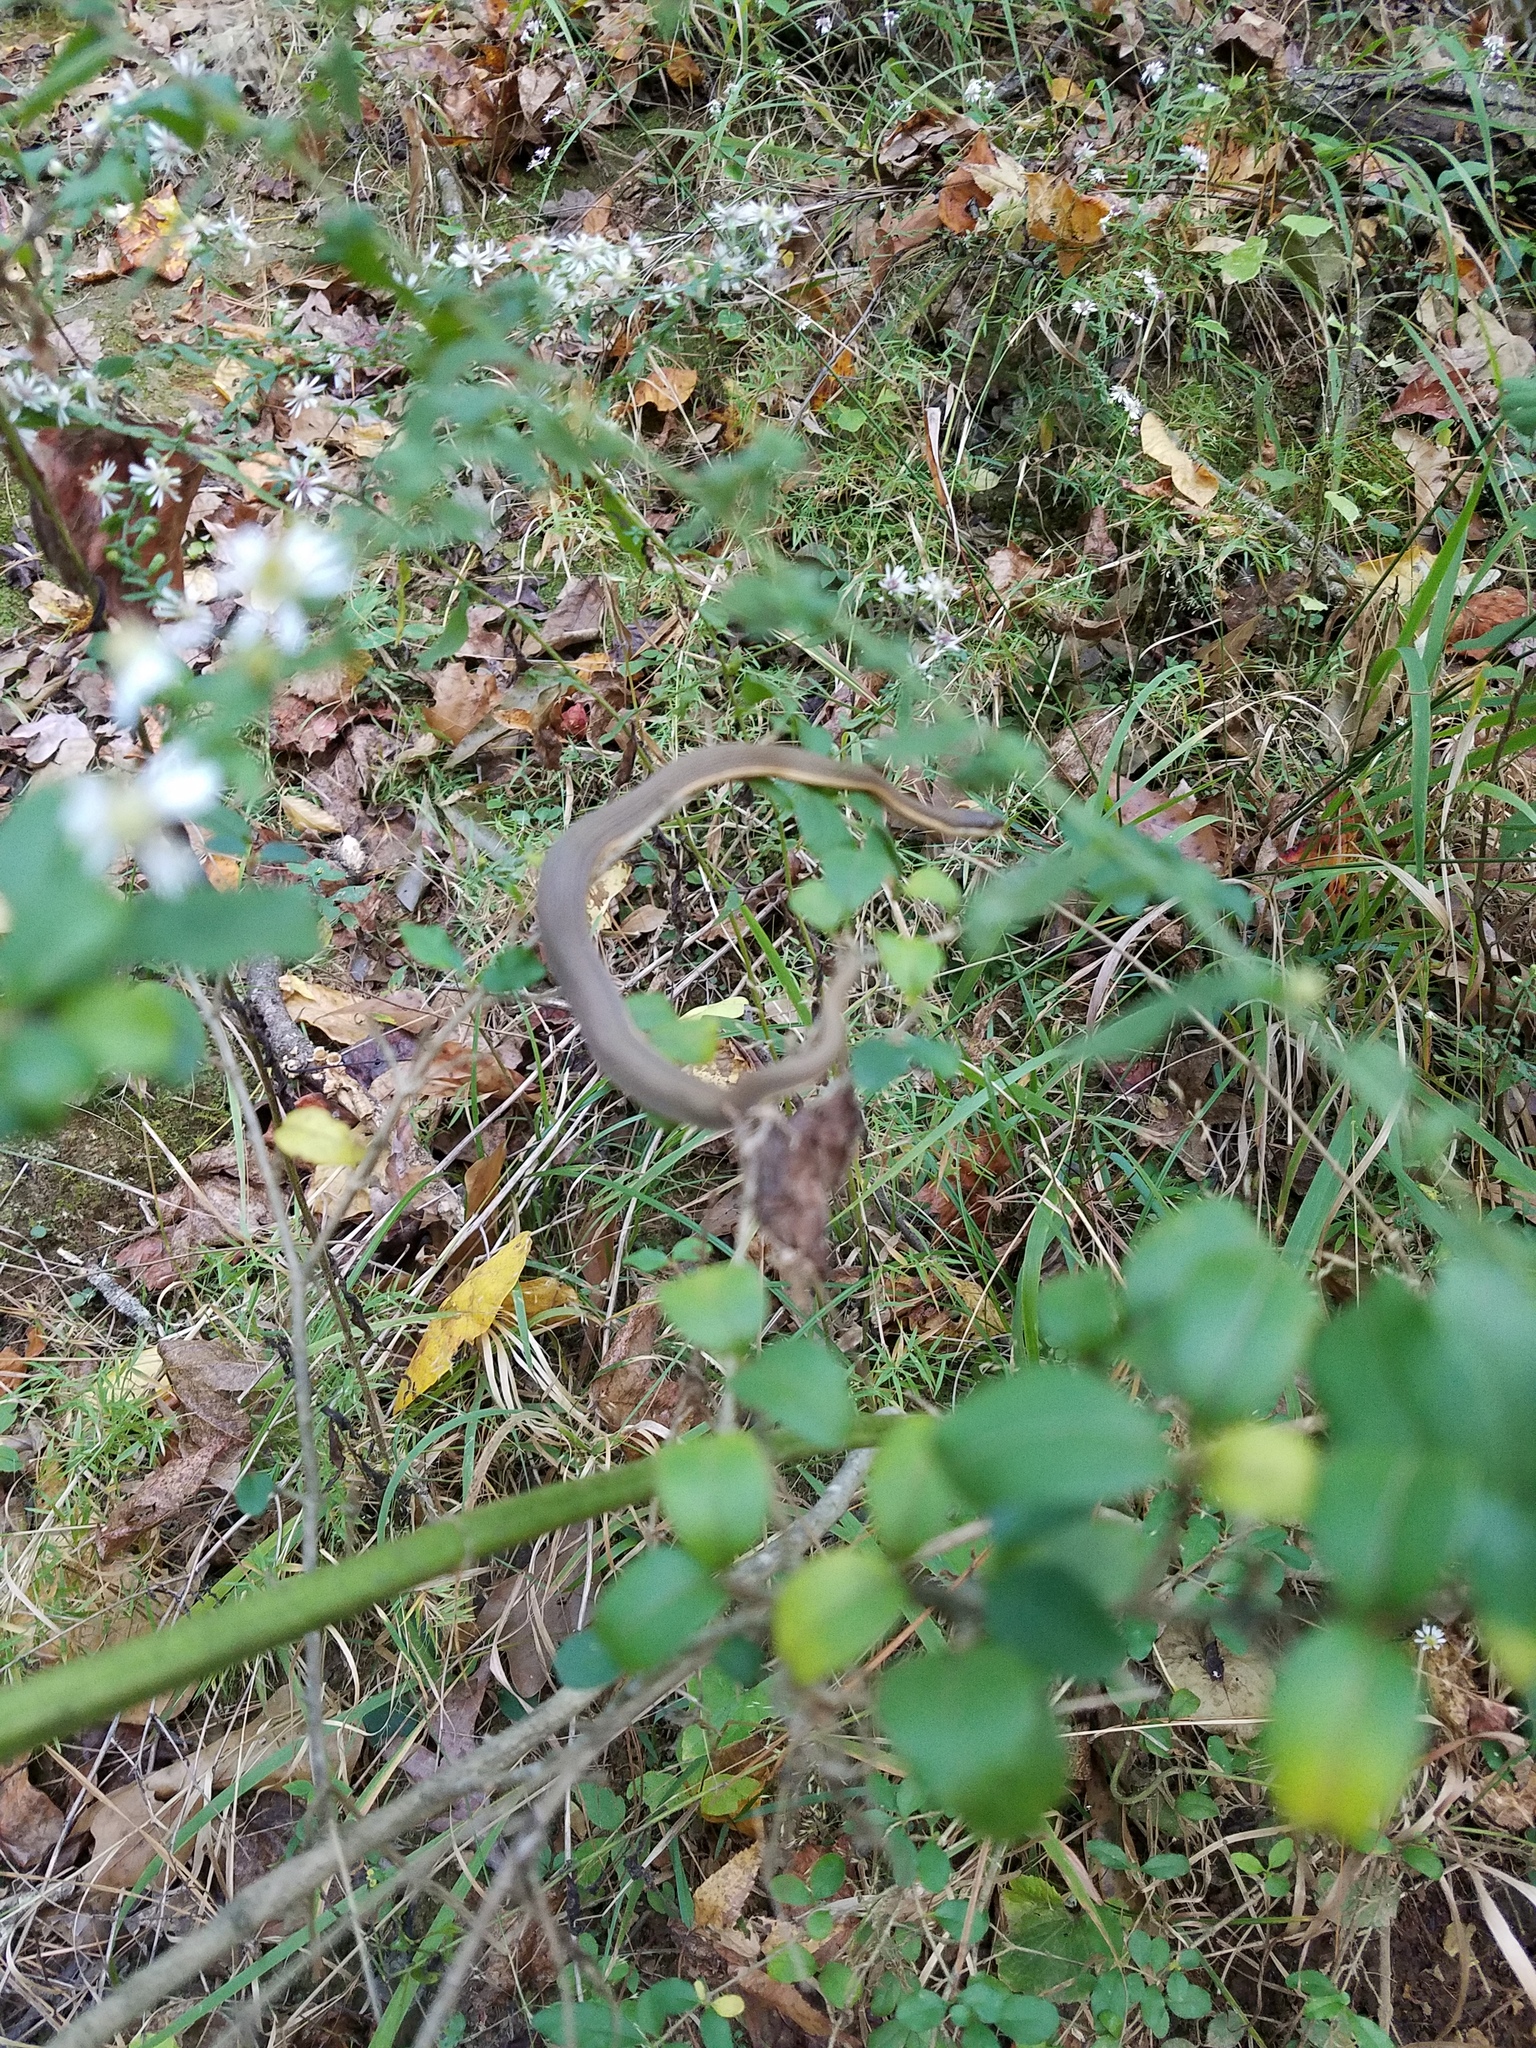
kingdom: Animalia
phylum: Chordata
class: Squamata
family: Colubridae
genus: Regina
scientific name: Regina septemvittata
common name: Queen snake
